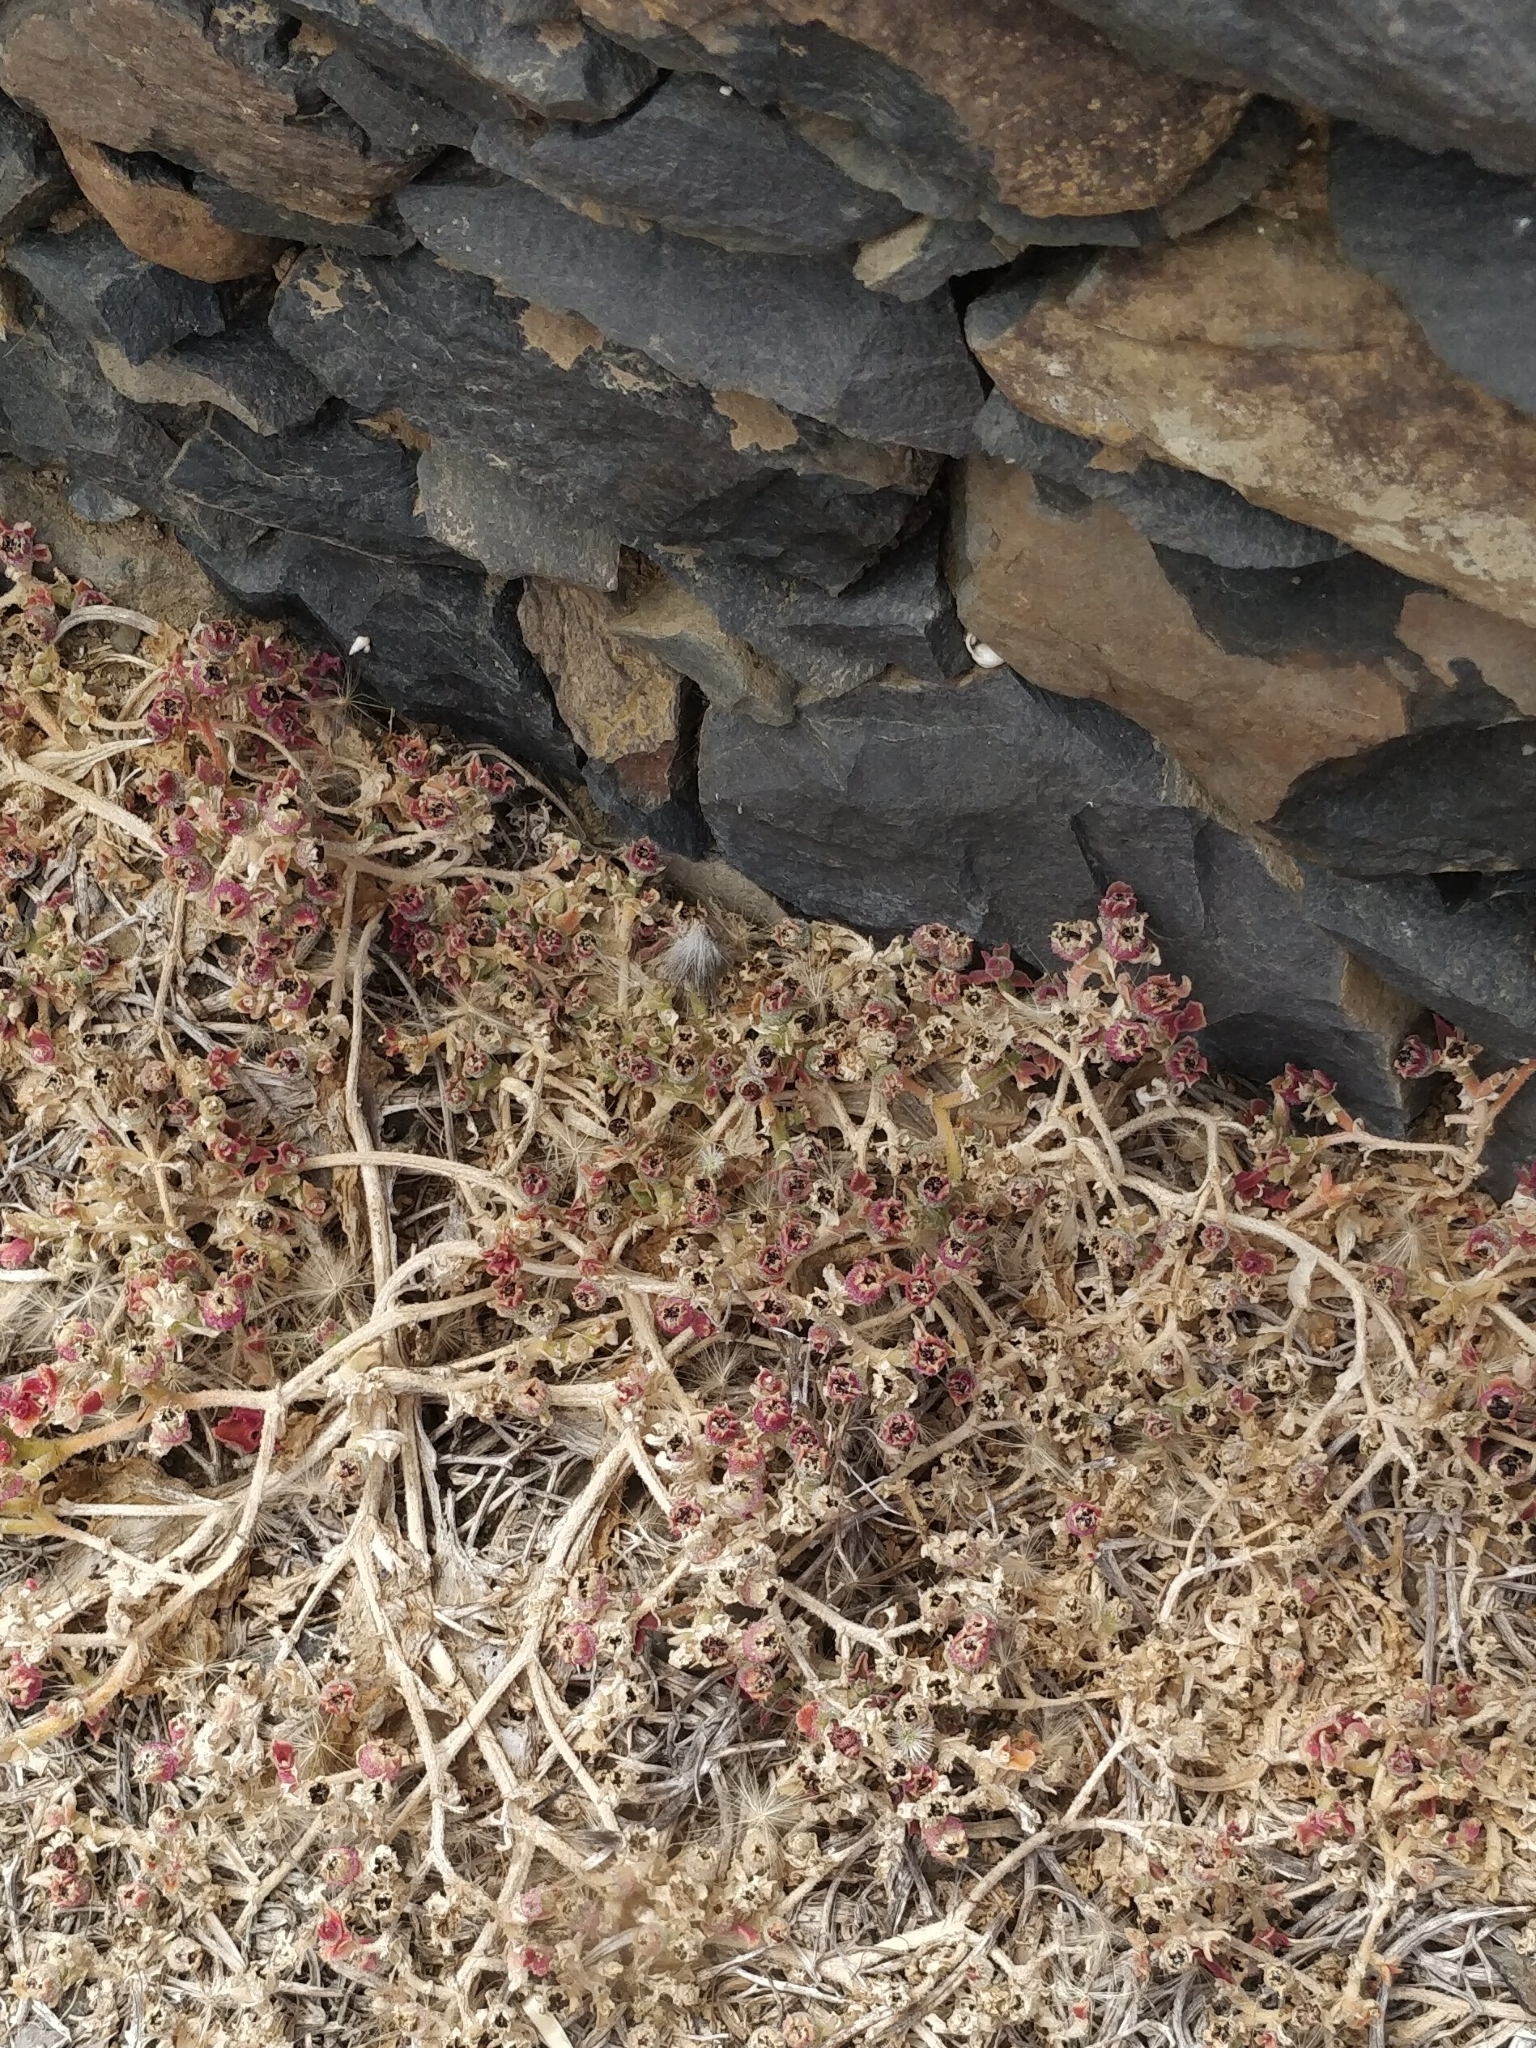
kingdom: Plantae
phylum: Tracheophyta
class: Magnoliopsida
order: Caryophyllales
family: Aizoaceae
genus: Mesembryanthemum
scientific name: Mesembryanthemum crystallinum
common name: Common iceplant
